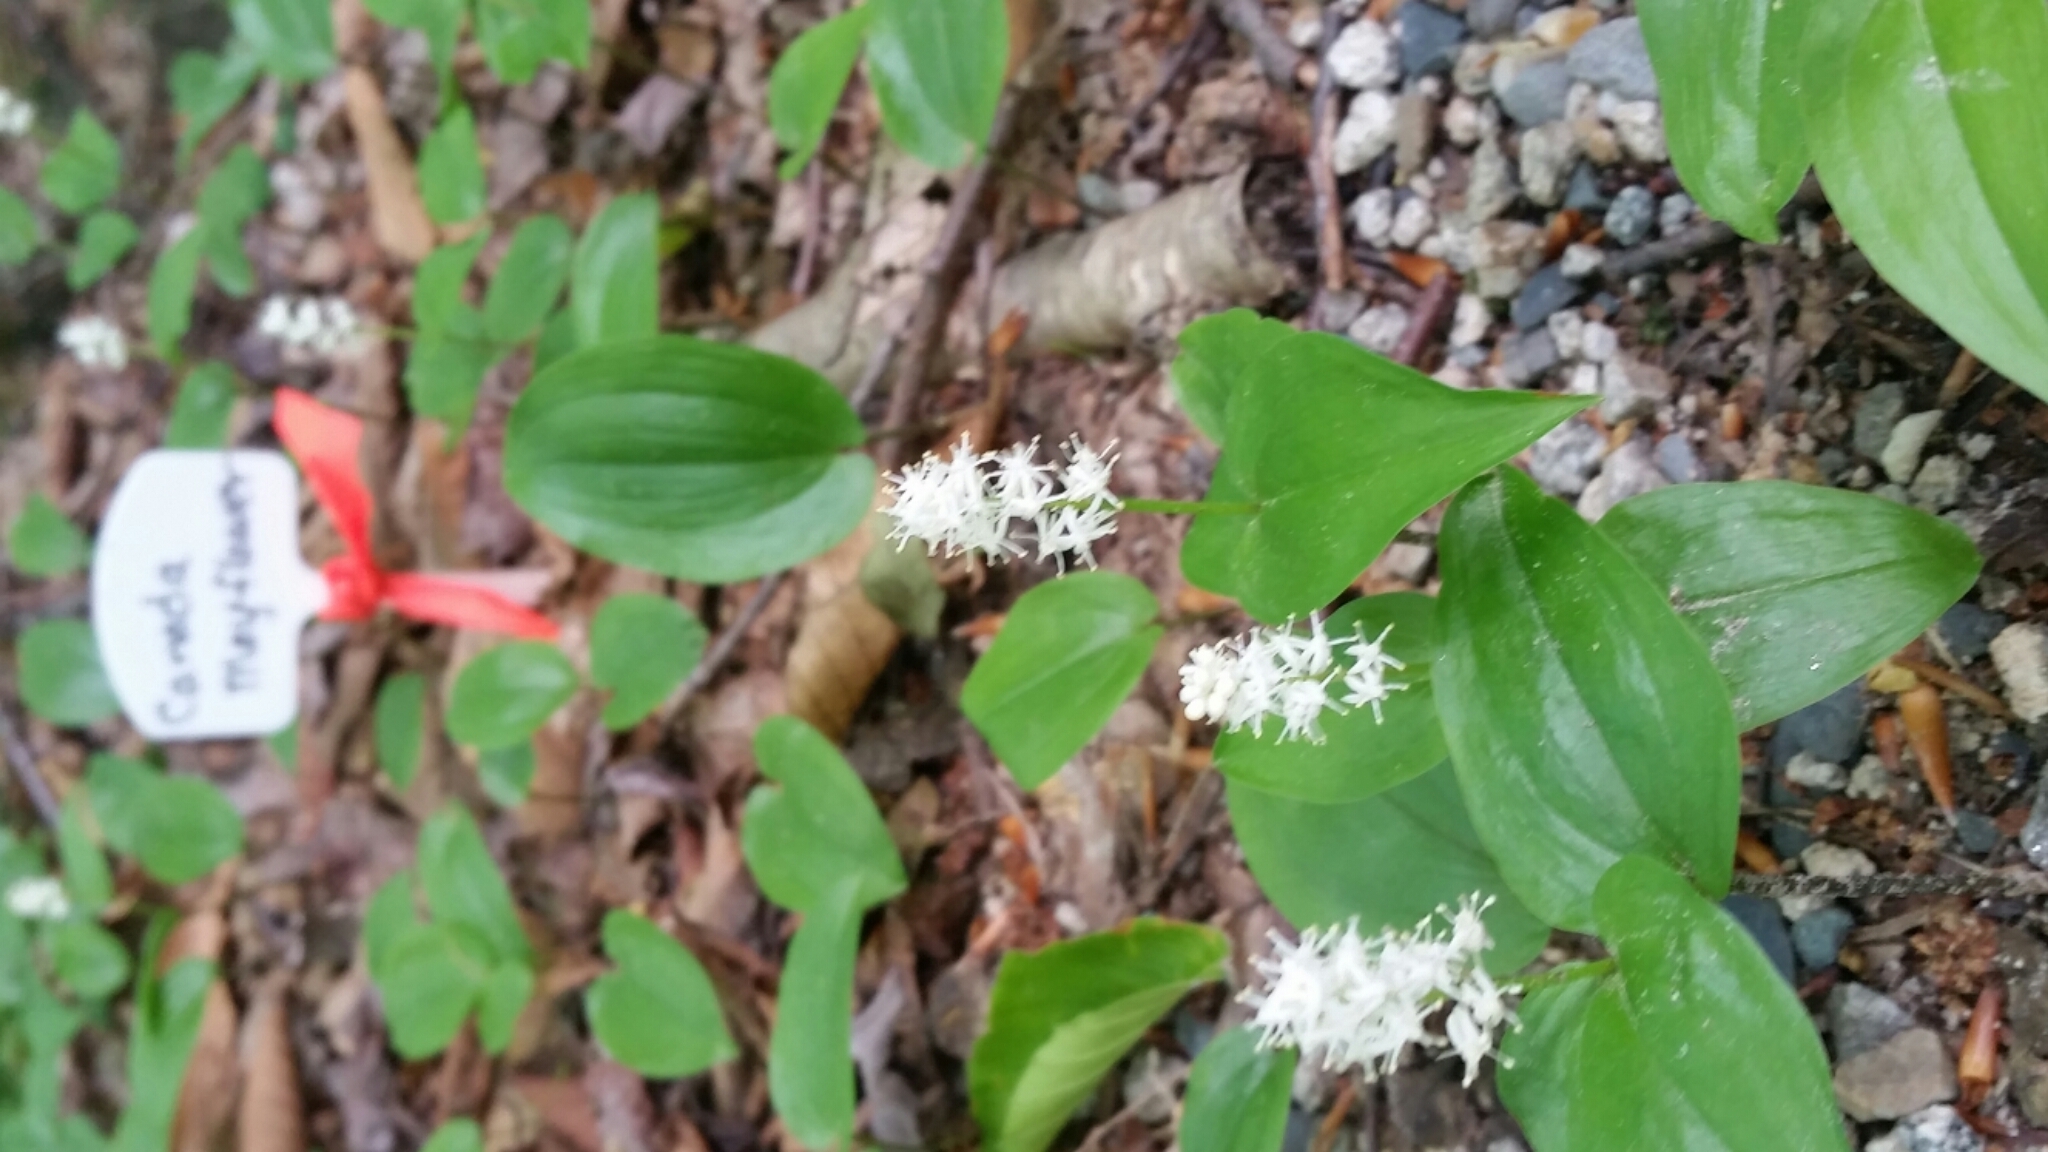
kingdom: Plantae
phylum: Tracheophyta
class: Liliopsida
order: Asparagales
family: Asparagaceae
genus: Maianthemum
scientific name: Maianthemum canadense
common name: False lily-of-the-valley
